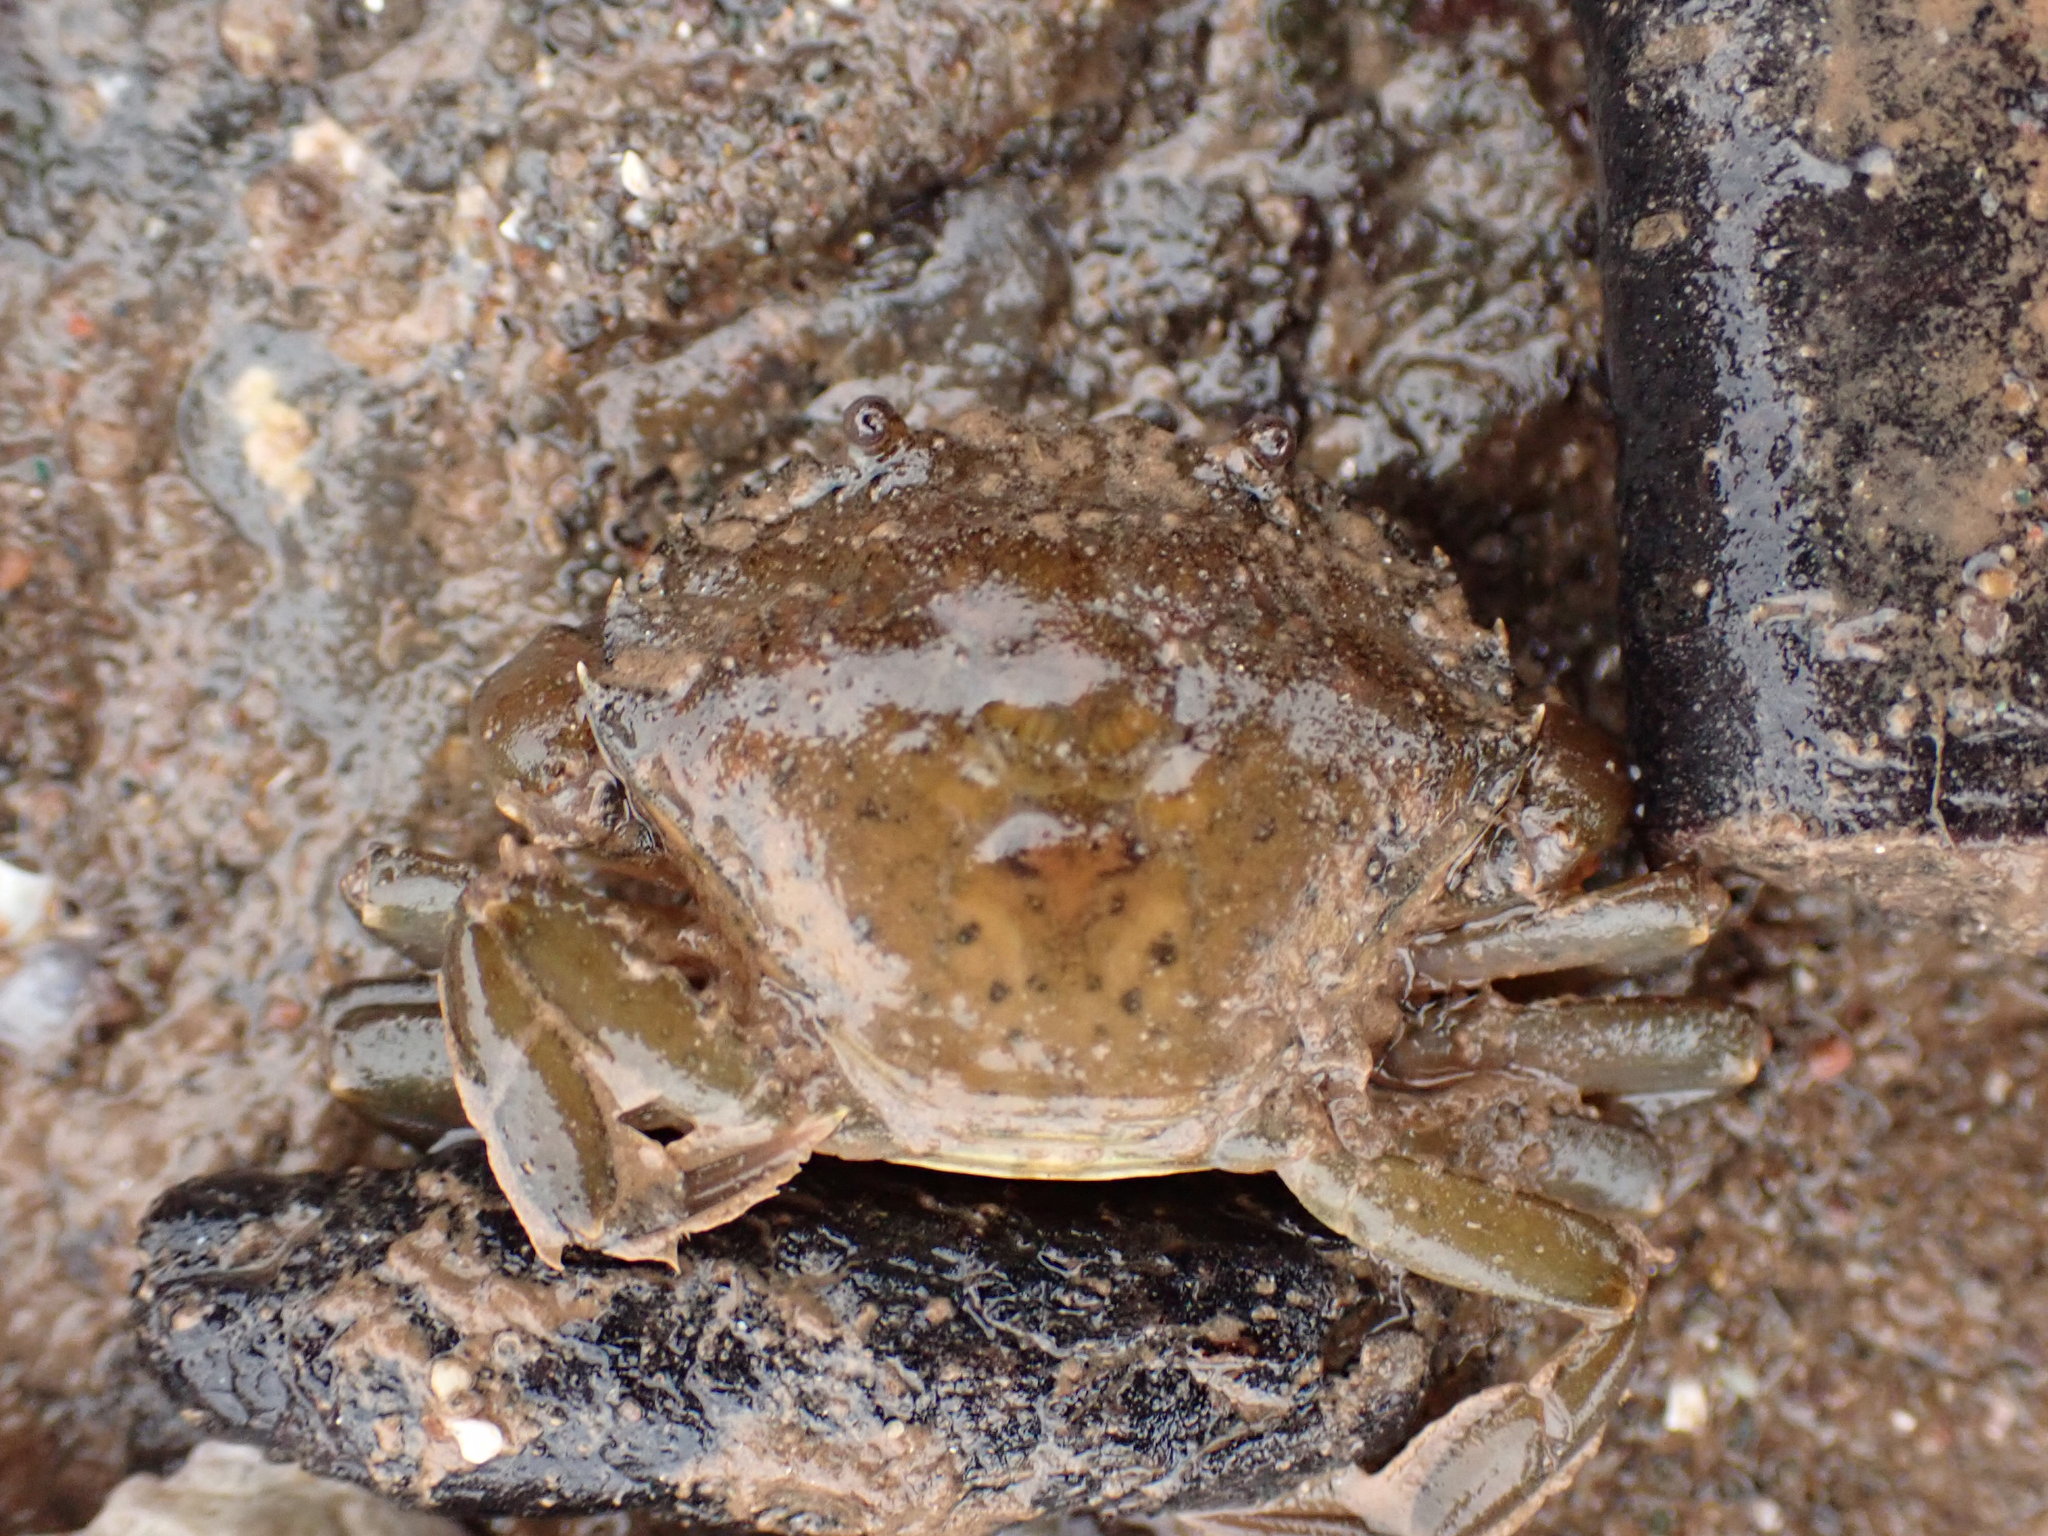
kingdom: Animalia
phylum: Arthropoda
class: Malacostraca
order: Decapoda
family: Carcinidae
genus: Carcinus
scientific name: Carcinus maenas
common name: European green crab
